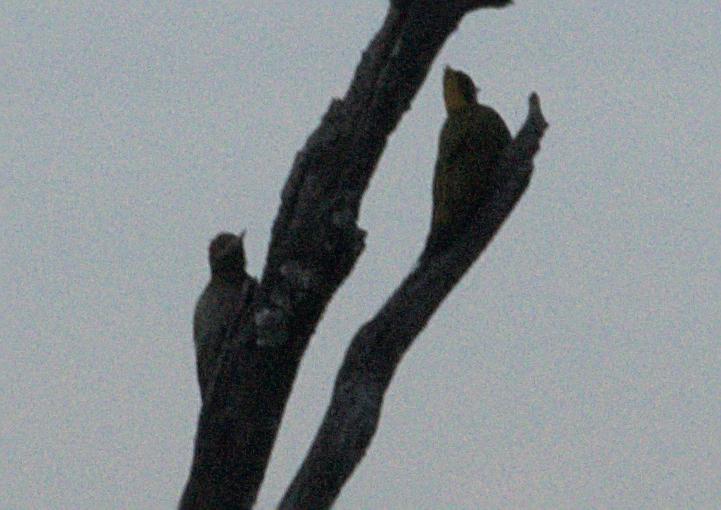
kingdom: Animalia
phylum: Chordata
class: Aves
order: Piciformes
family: Picidae
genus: Picus
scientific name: Picus chlorolophus
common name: Lesser yellownape
